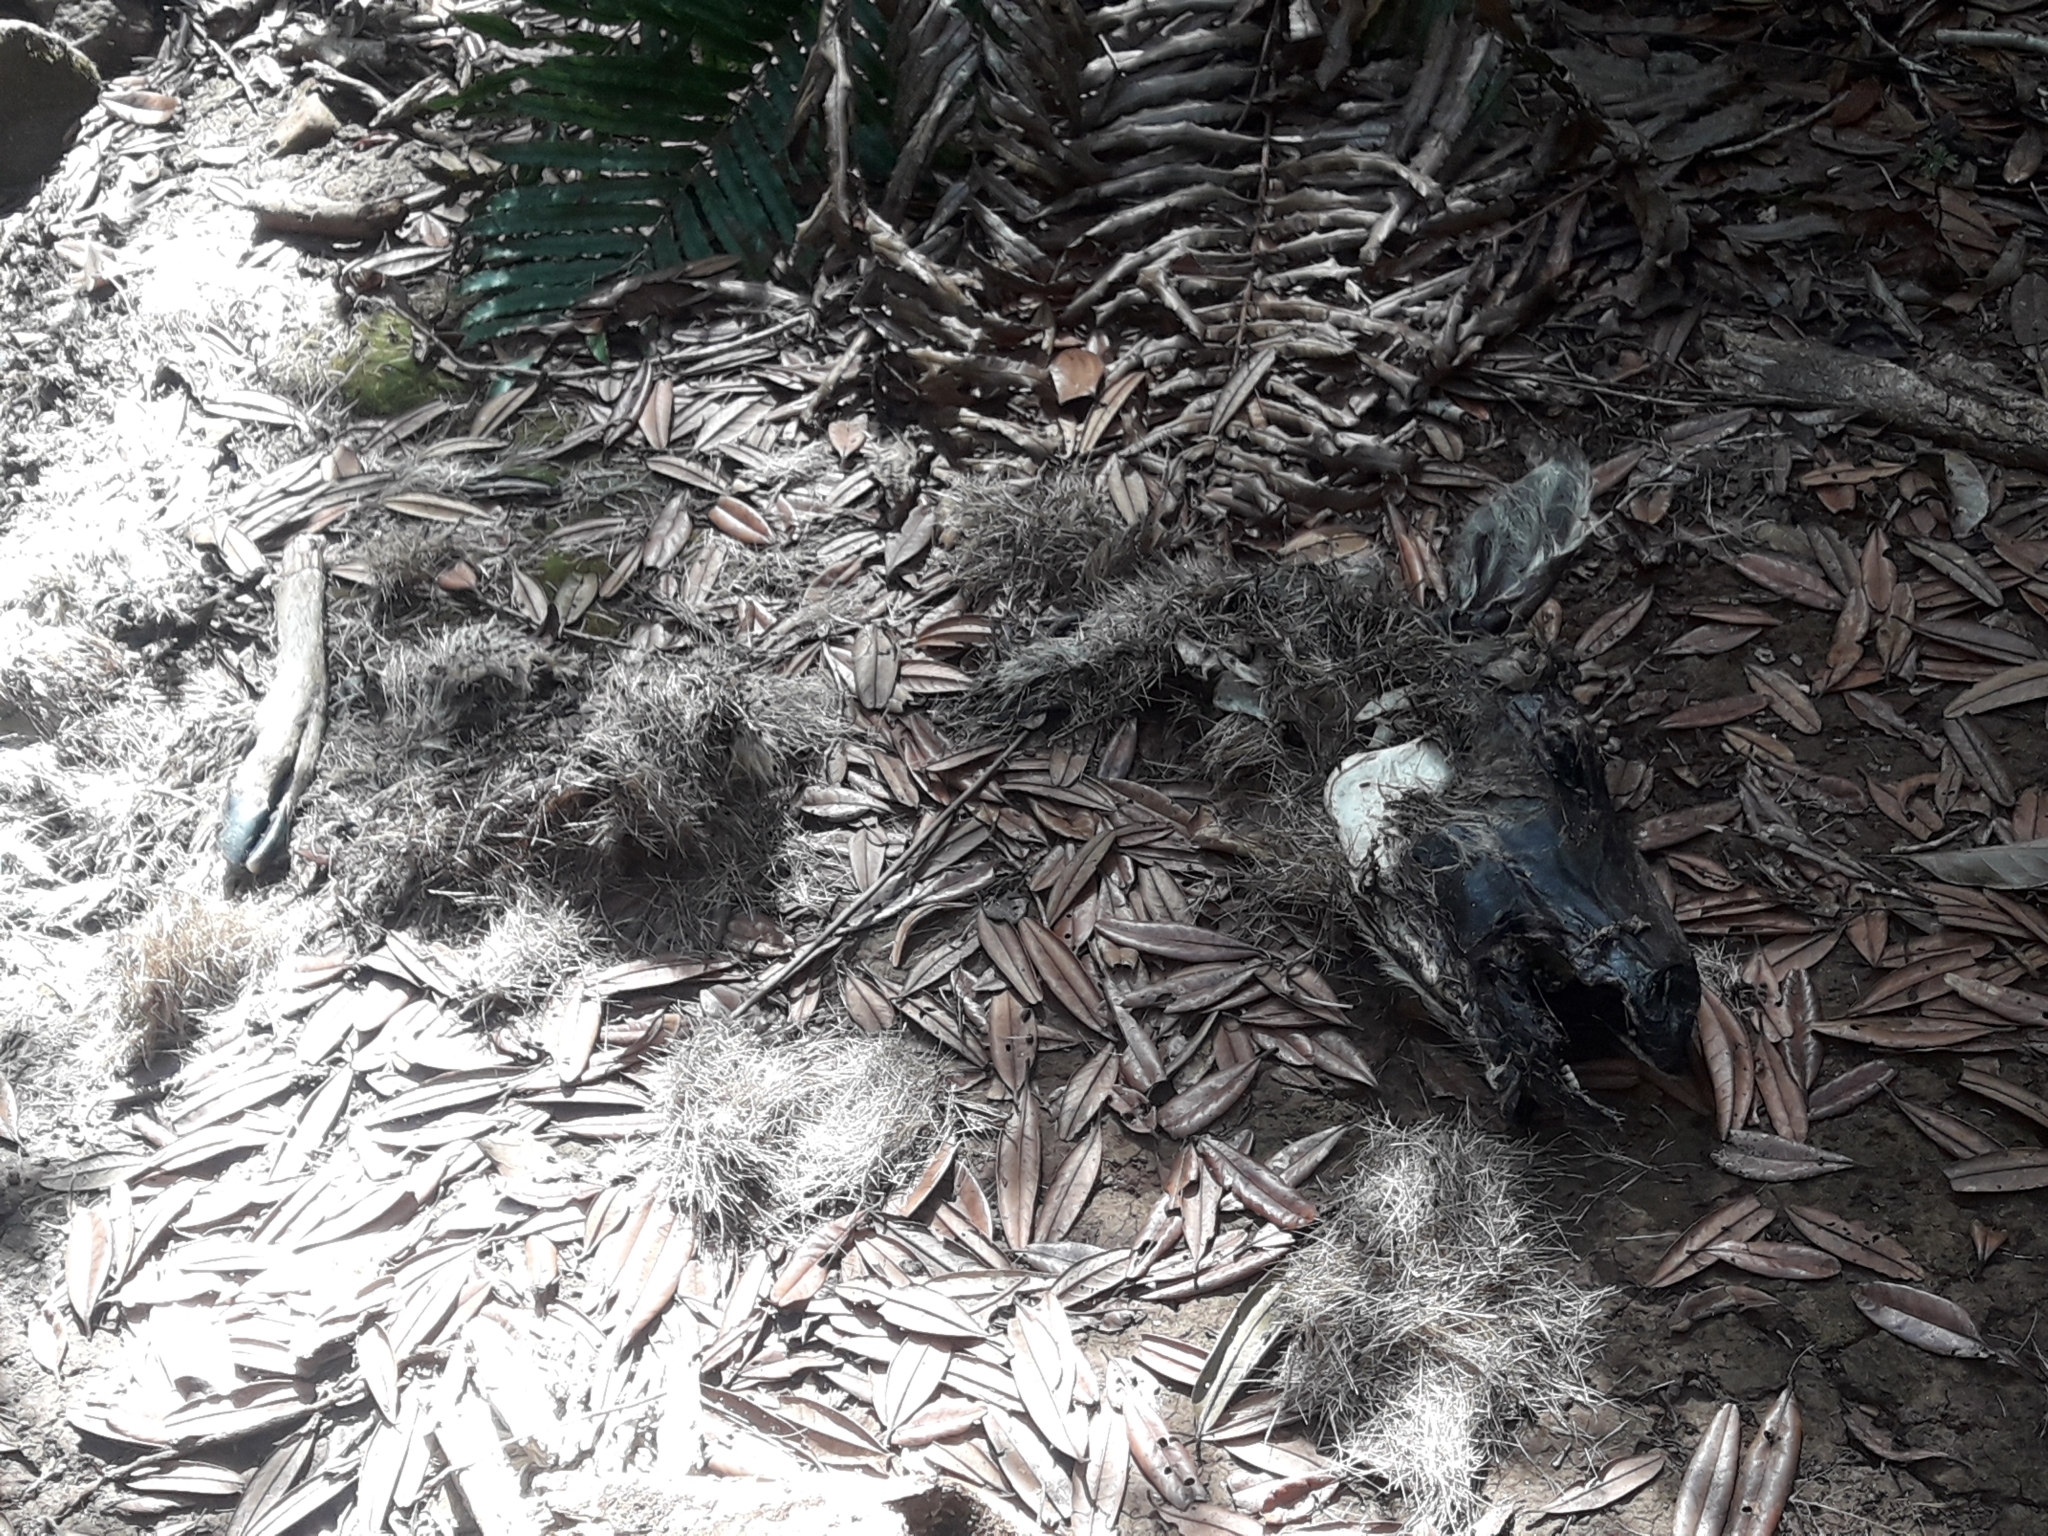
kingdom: Animalia
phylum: Chordata
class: Mammalia
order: Artiodactyla
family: Cervidae
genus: Rusa
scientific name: Rusa timorensis
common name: Javan rusa
